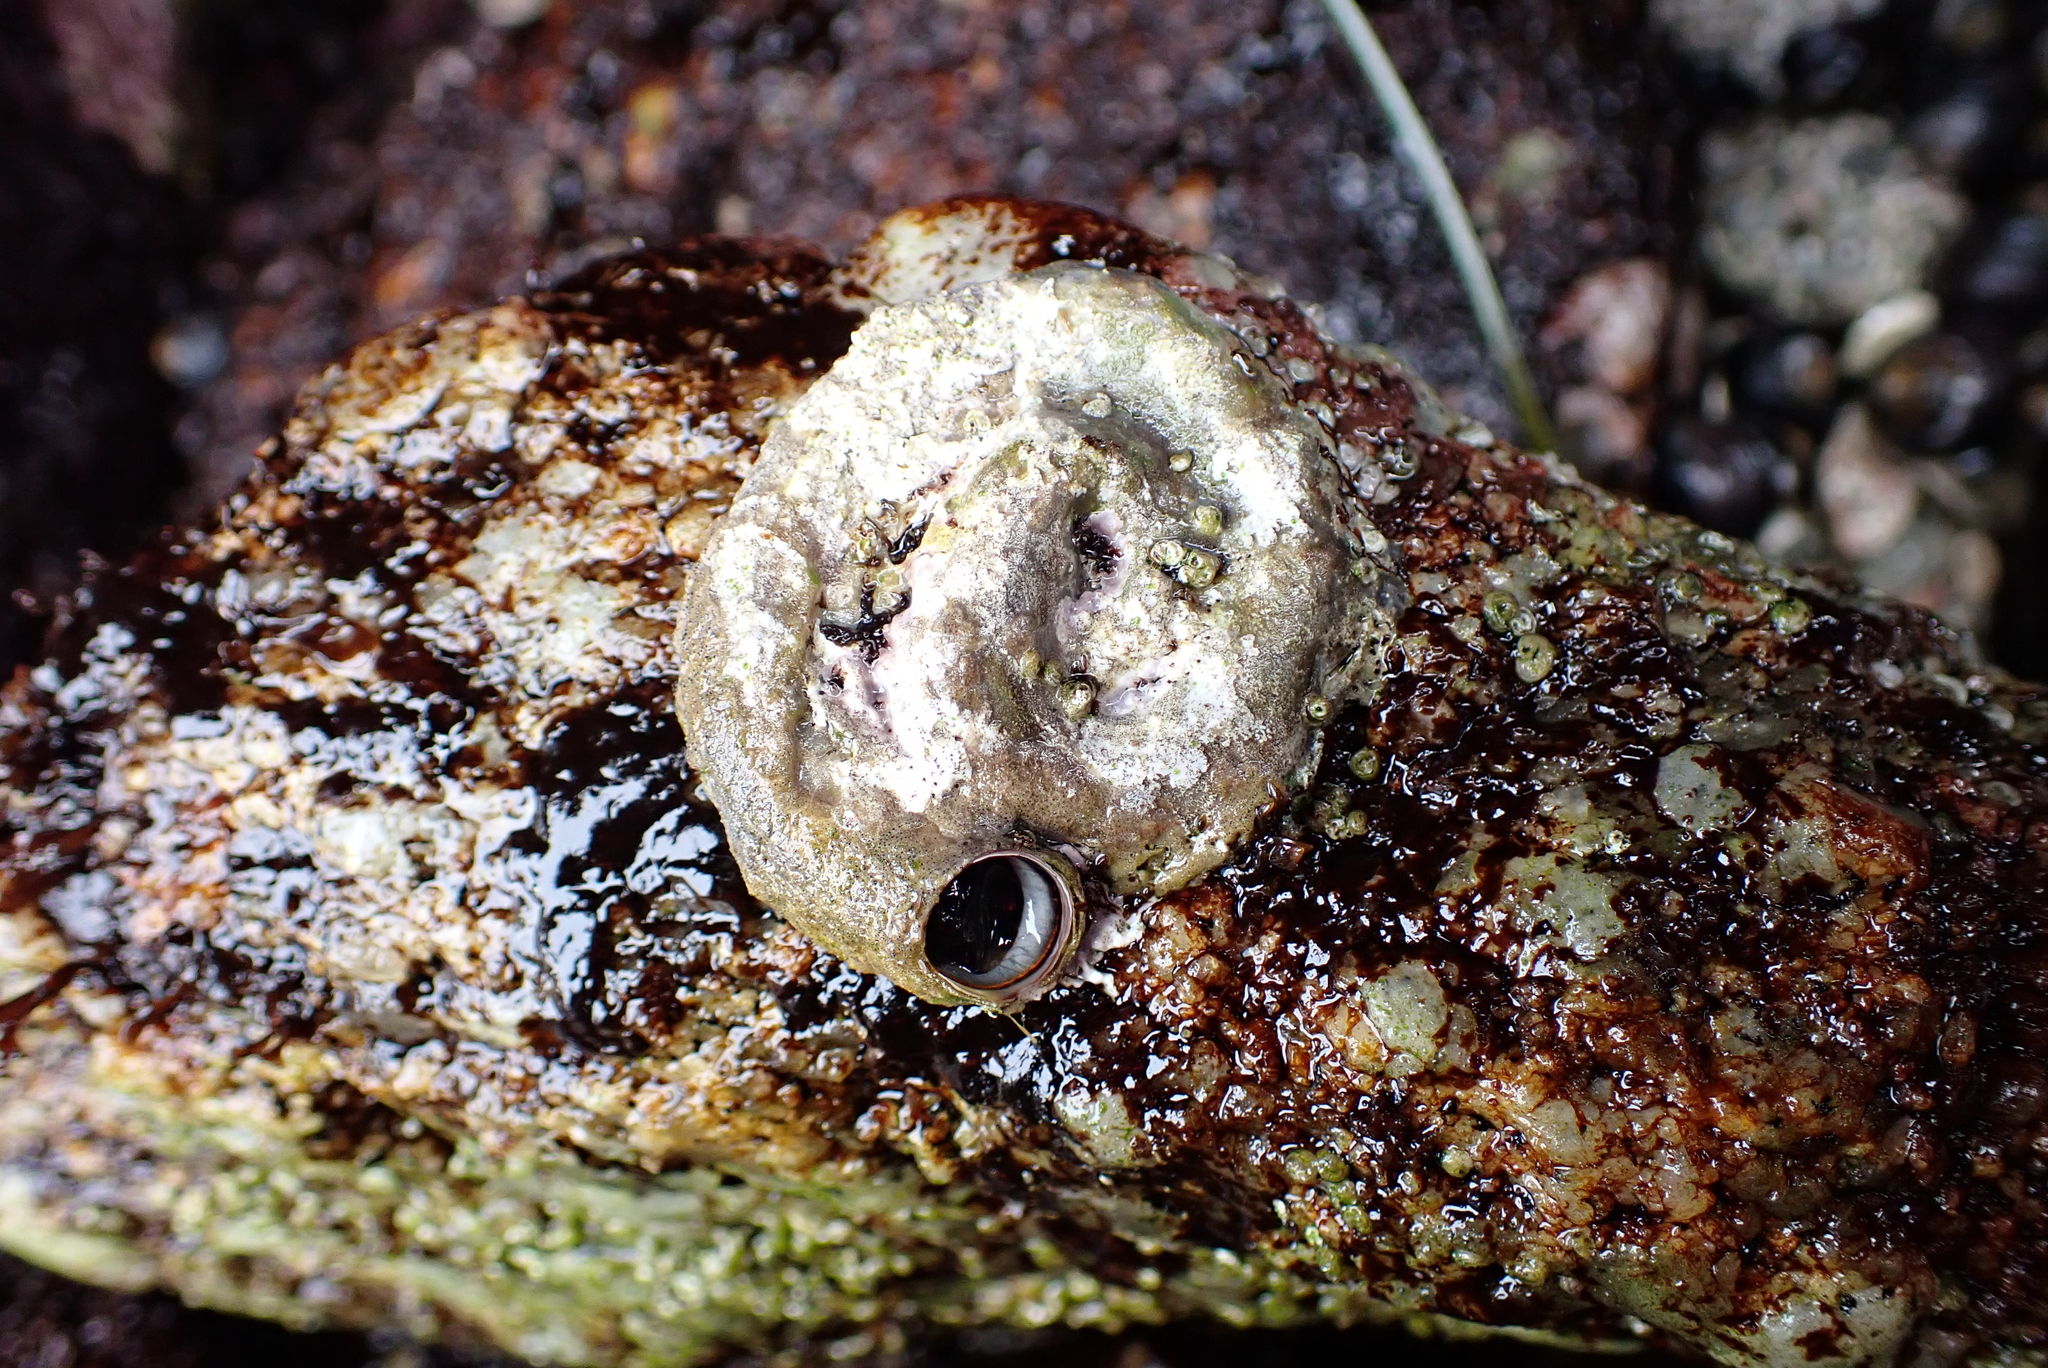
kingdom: Animalia
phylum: Mollusca
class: Gastropoda
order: Littorinimorpha
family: Vermetidae
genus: Thylacodes
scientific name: Thylacodes squamigerus
